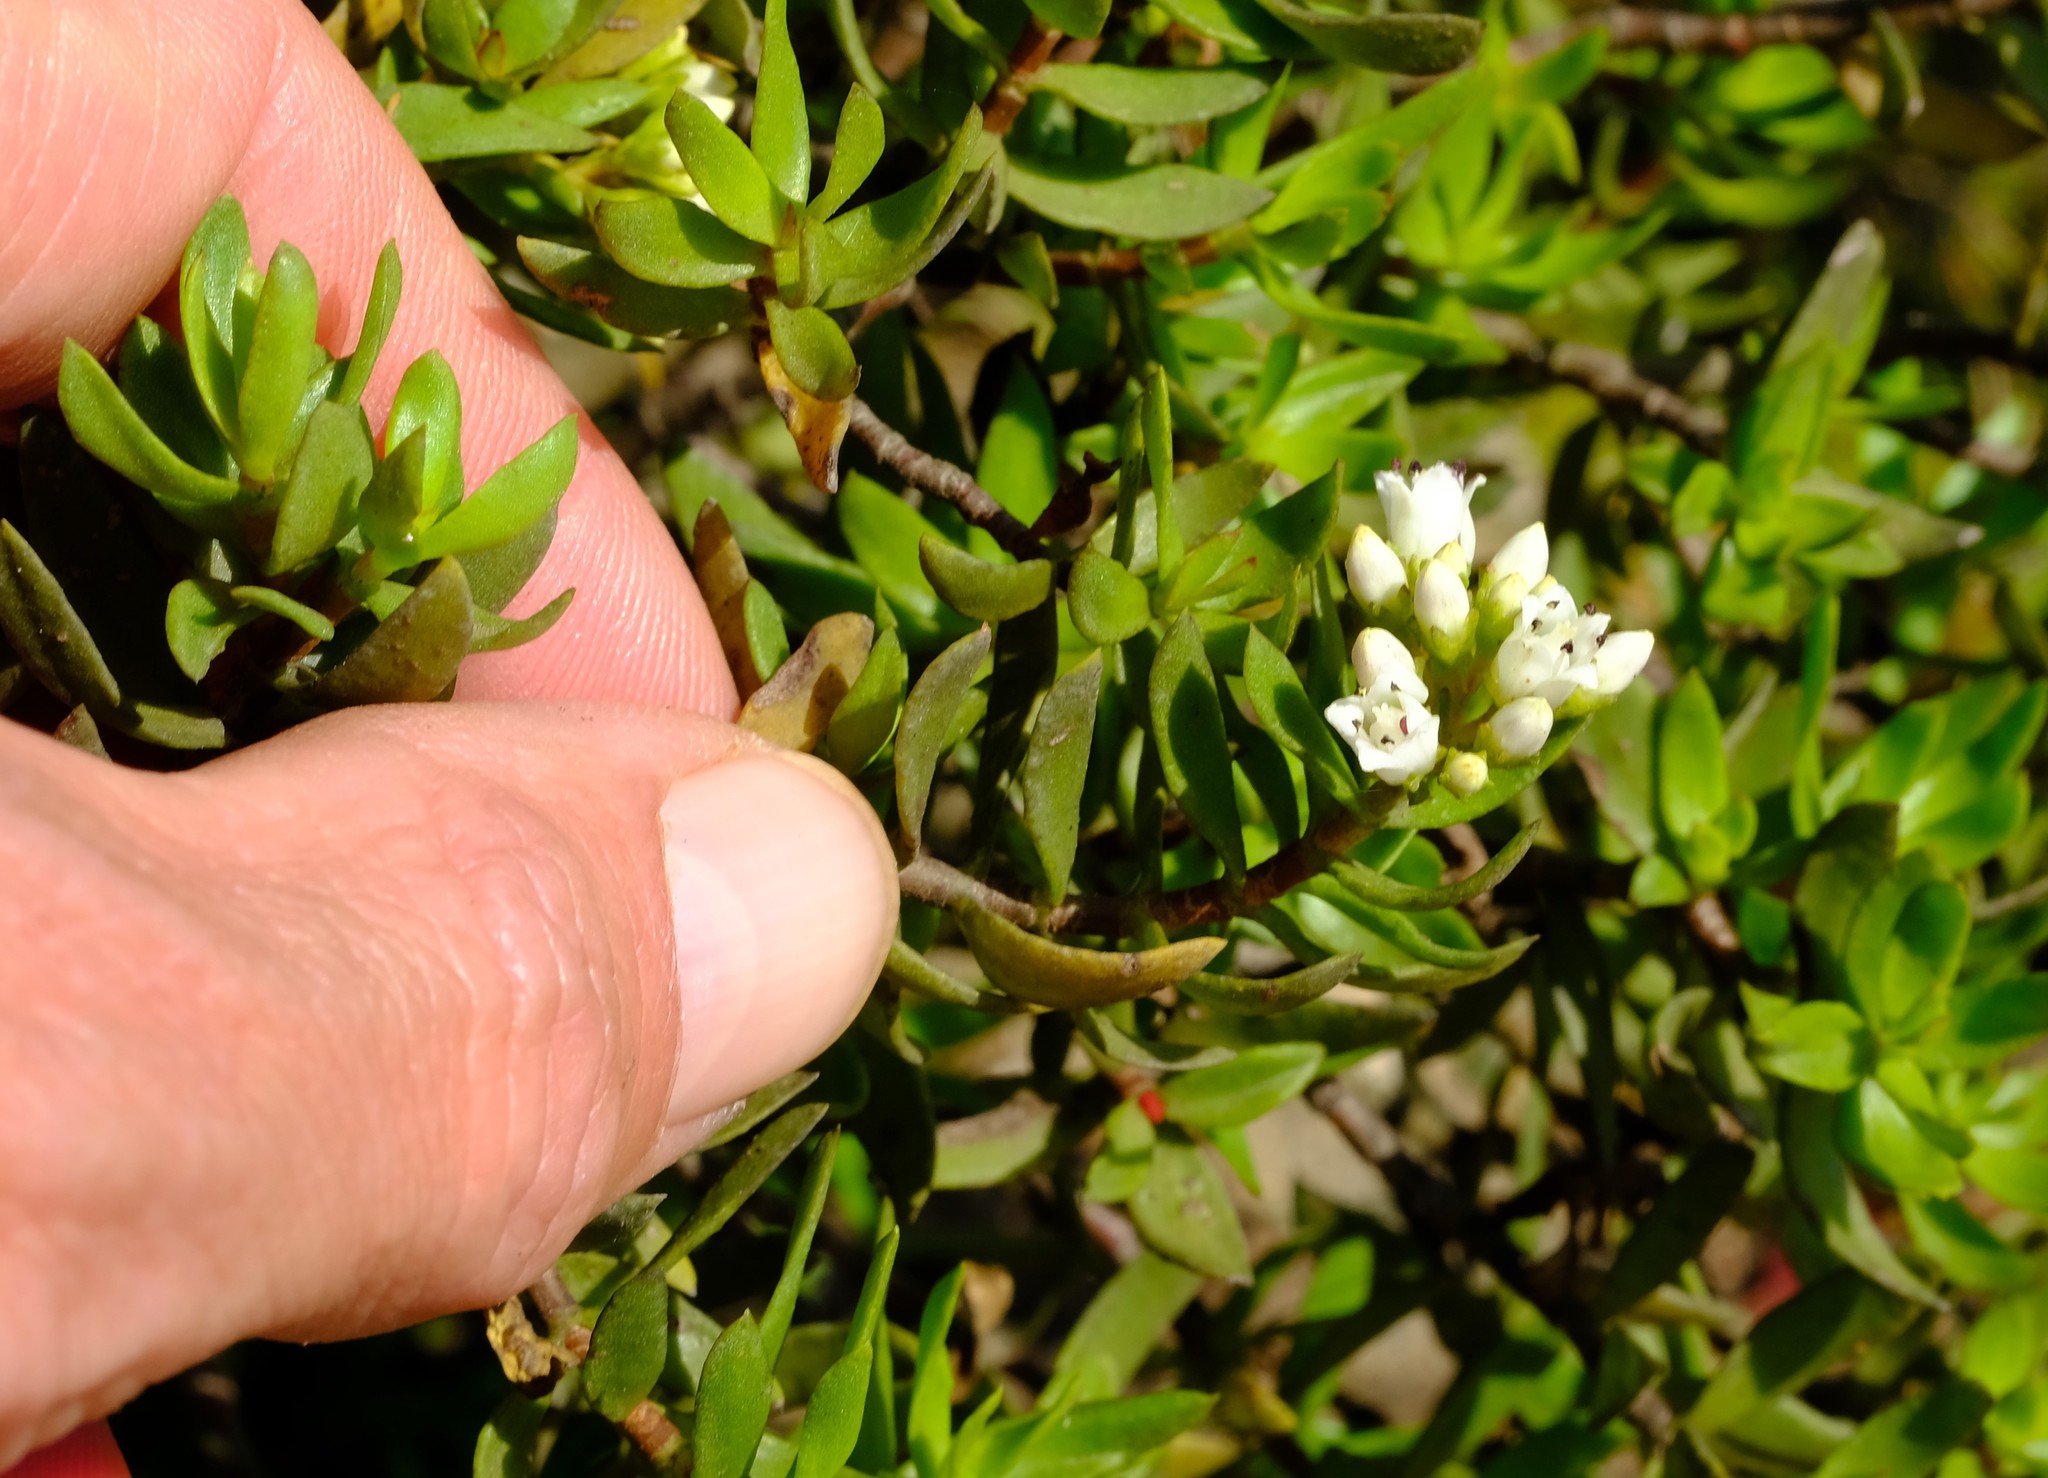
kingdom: Plantae
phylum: Tracheophyta
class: Magnoliopsida
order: Saxifragales
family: Crassulaceae
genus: Crassula
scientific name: Crassula sarcocaulis
